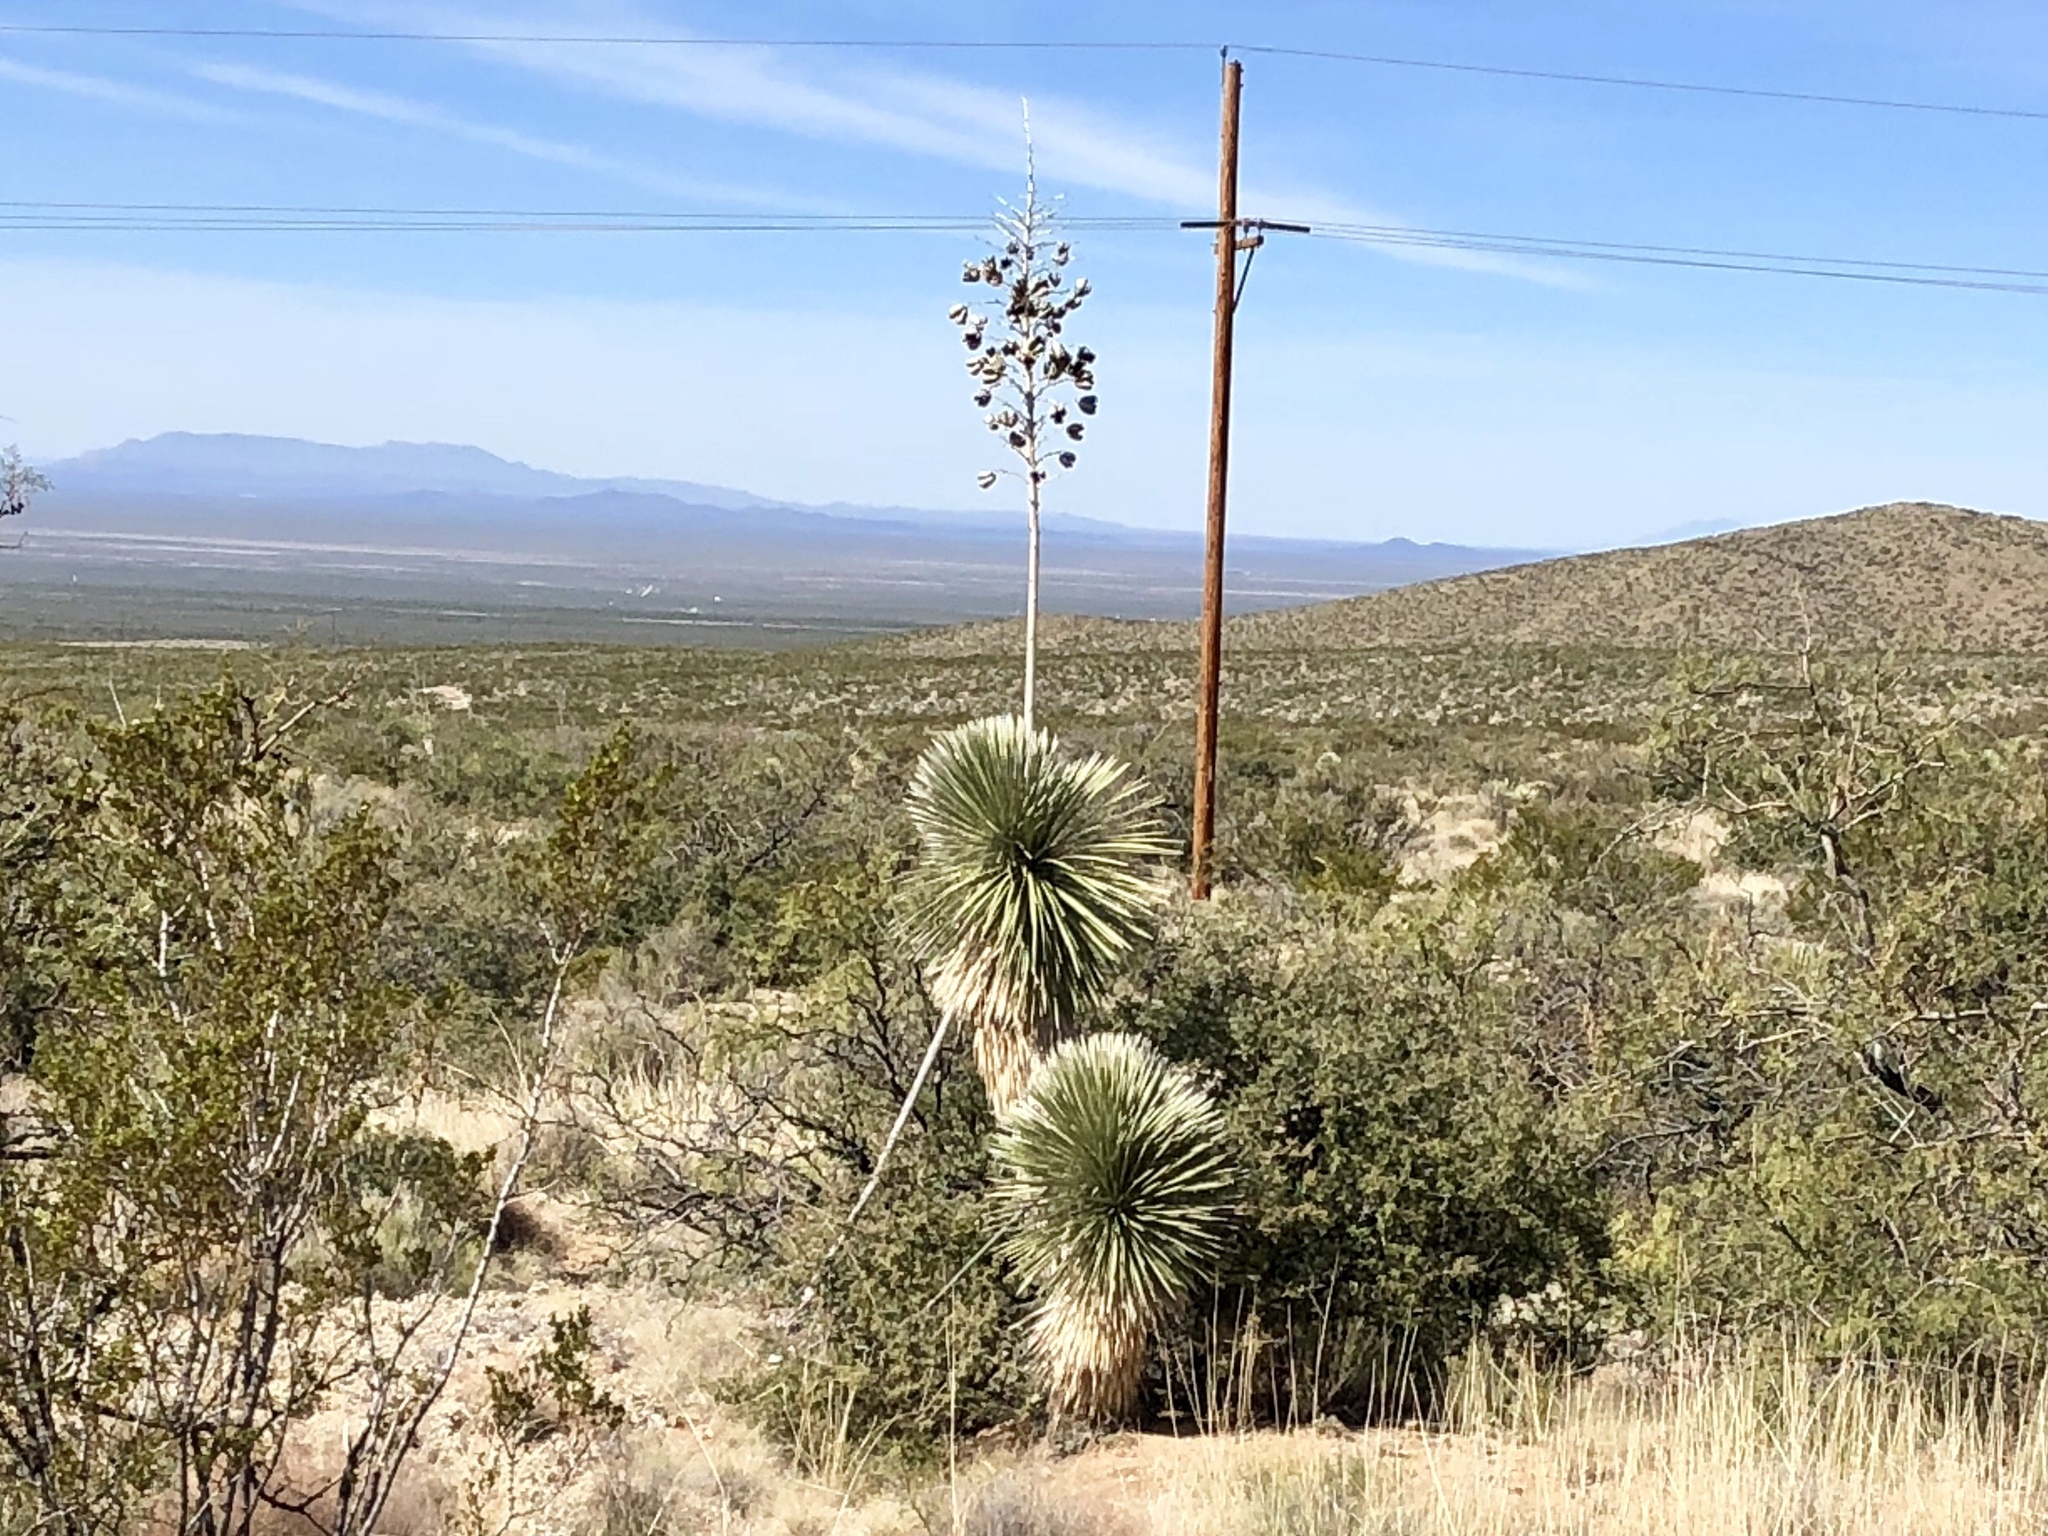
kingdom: Plantae
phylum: Tracheophyta
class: Liliopsida
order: Asparagales
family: Asparagaceae
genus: Yucca
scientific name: Yucca elata
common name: Palmella
